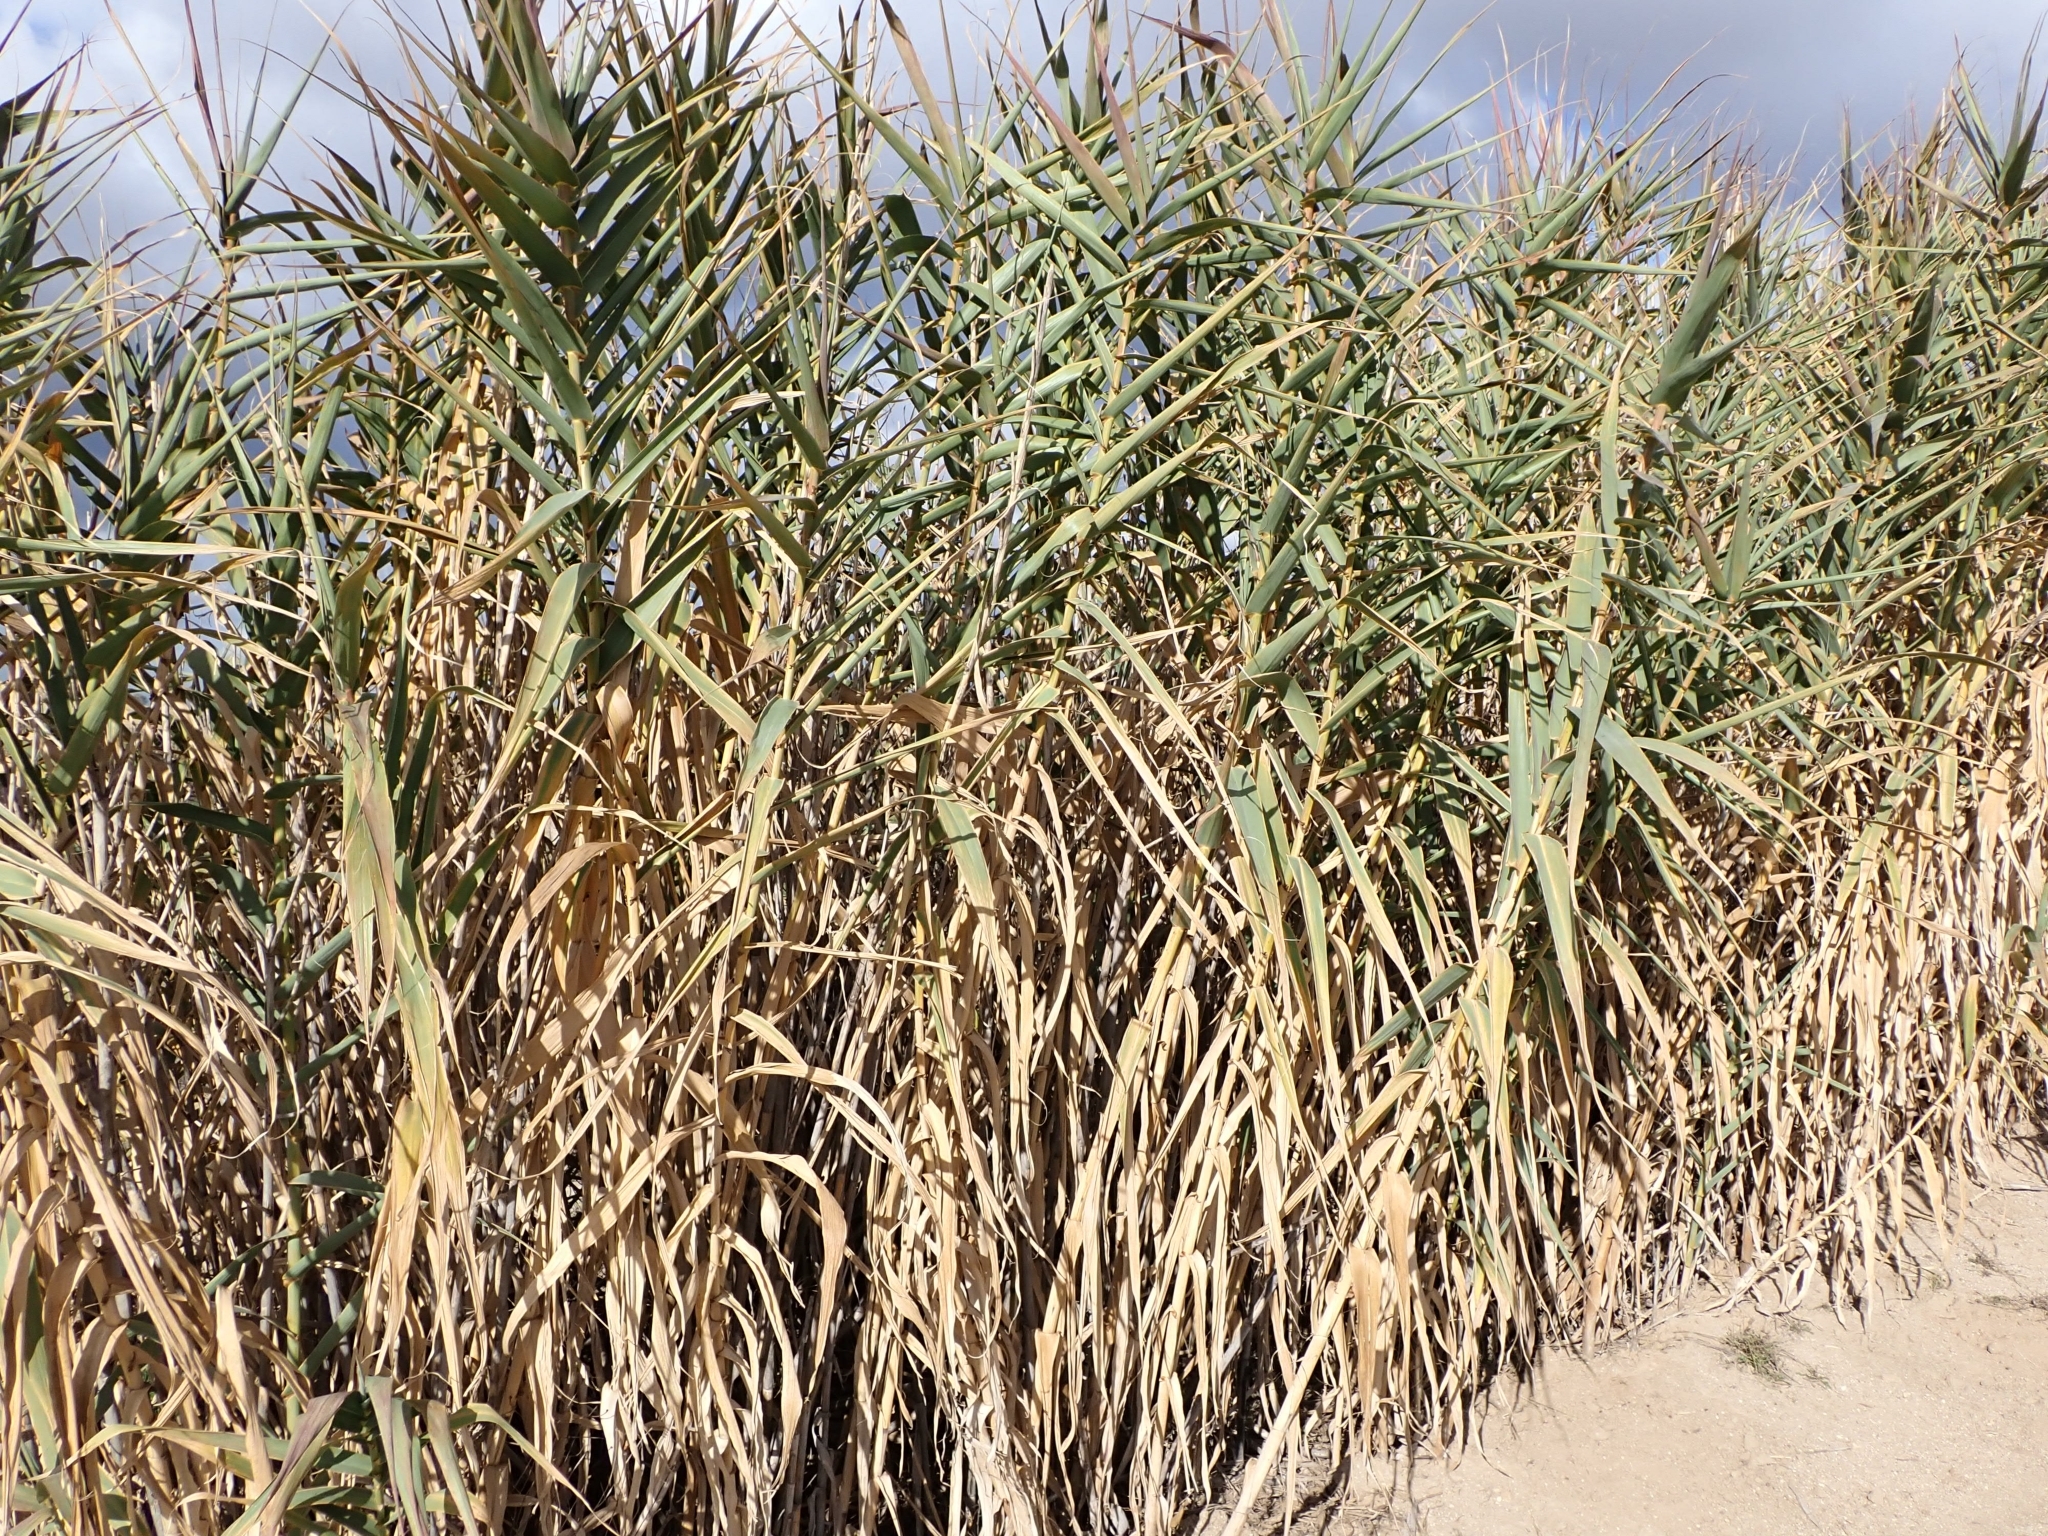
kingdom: Plantae
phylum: Tracheophyta
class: Liliopsida
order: Poales
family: Poaceae
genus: Arundo
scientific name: Arundo donax
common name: Giant reed
